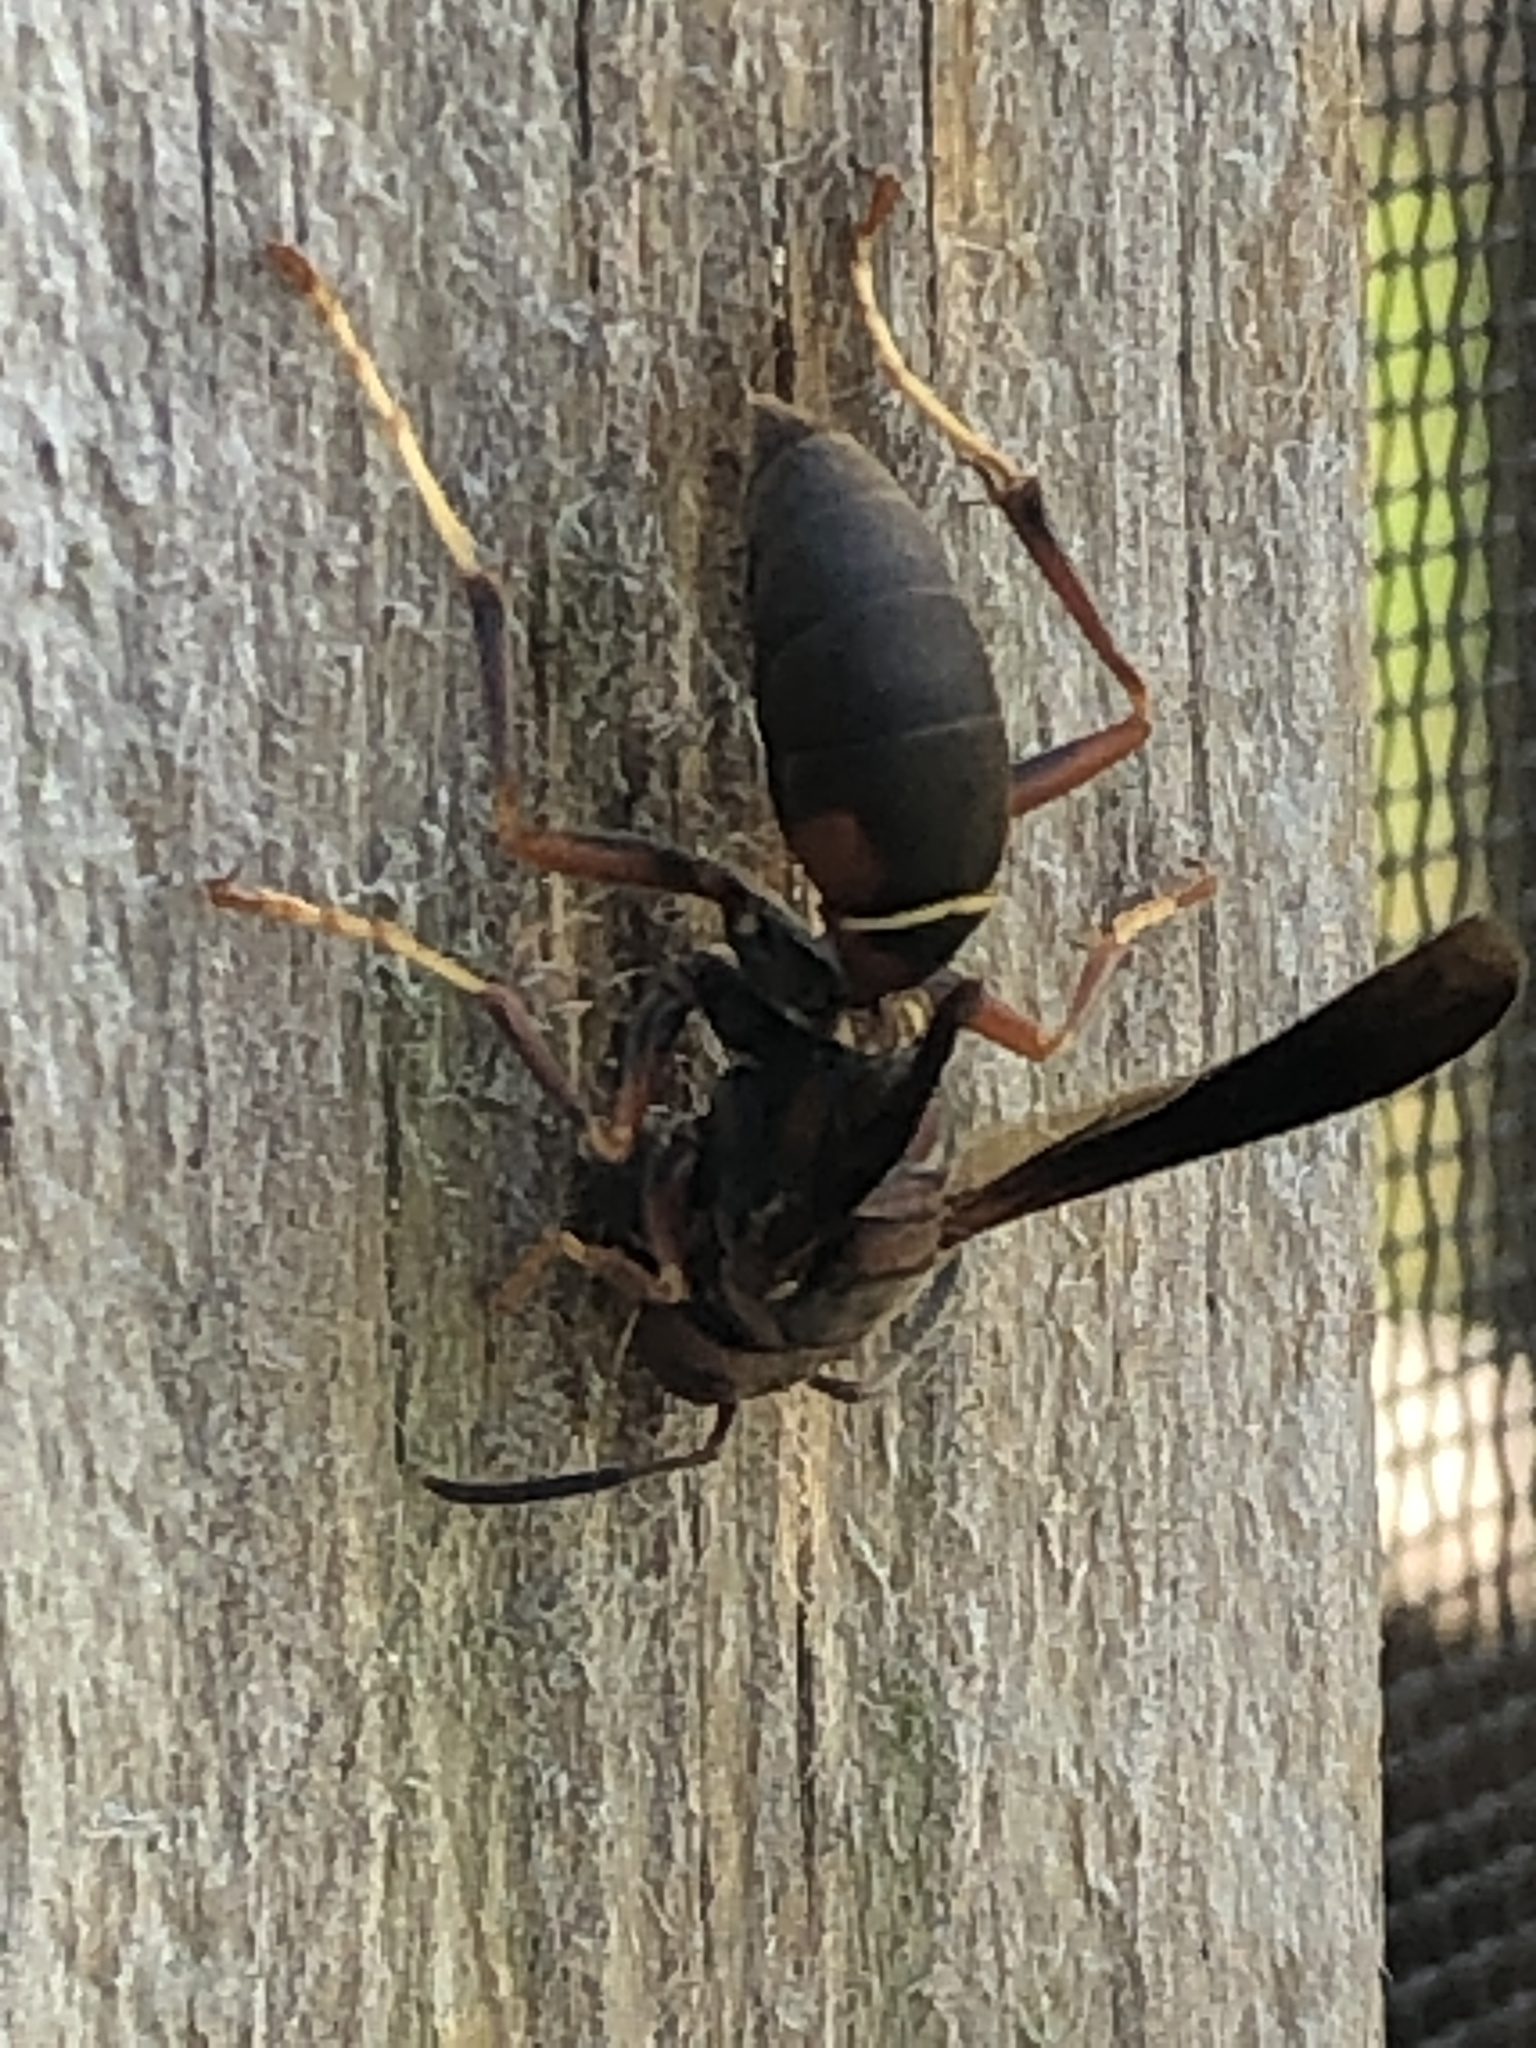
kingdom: Animalia
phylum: Arthropoda
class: Insecta
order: Hymenoptera
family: Eumenidae
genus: Polistes
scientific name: Polistes fuscatus
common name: Dark paper wasp
